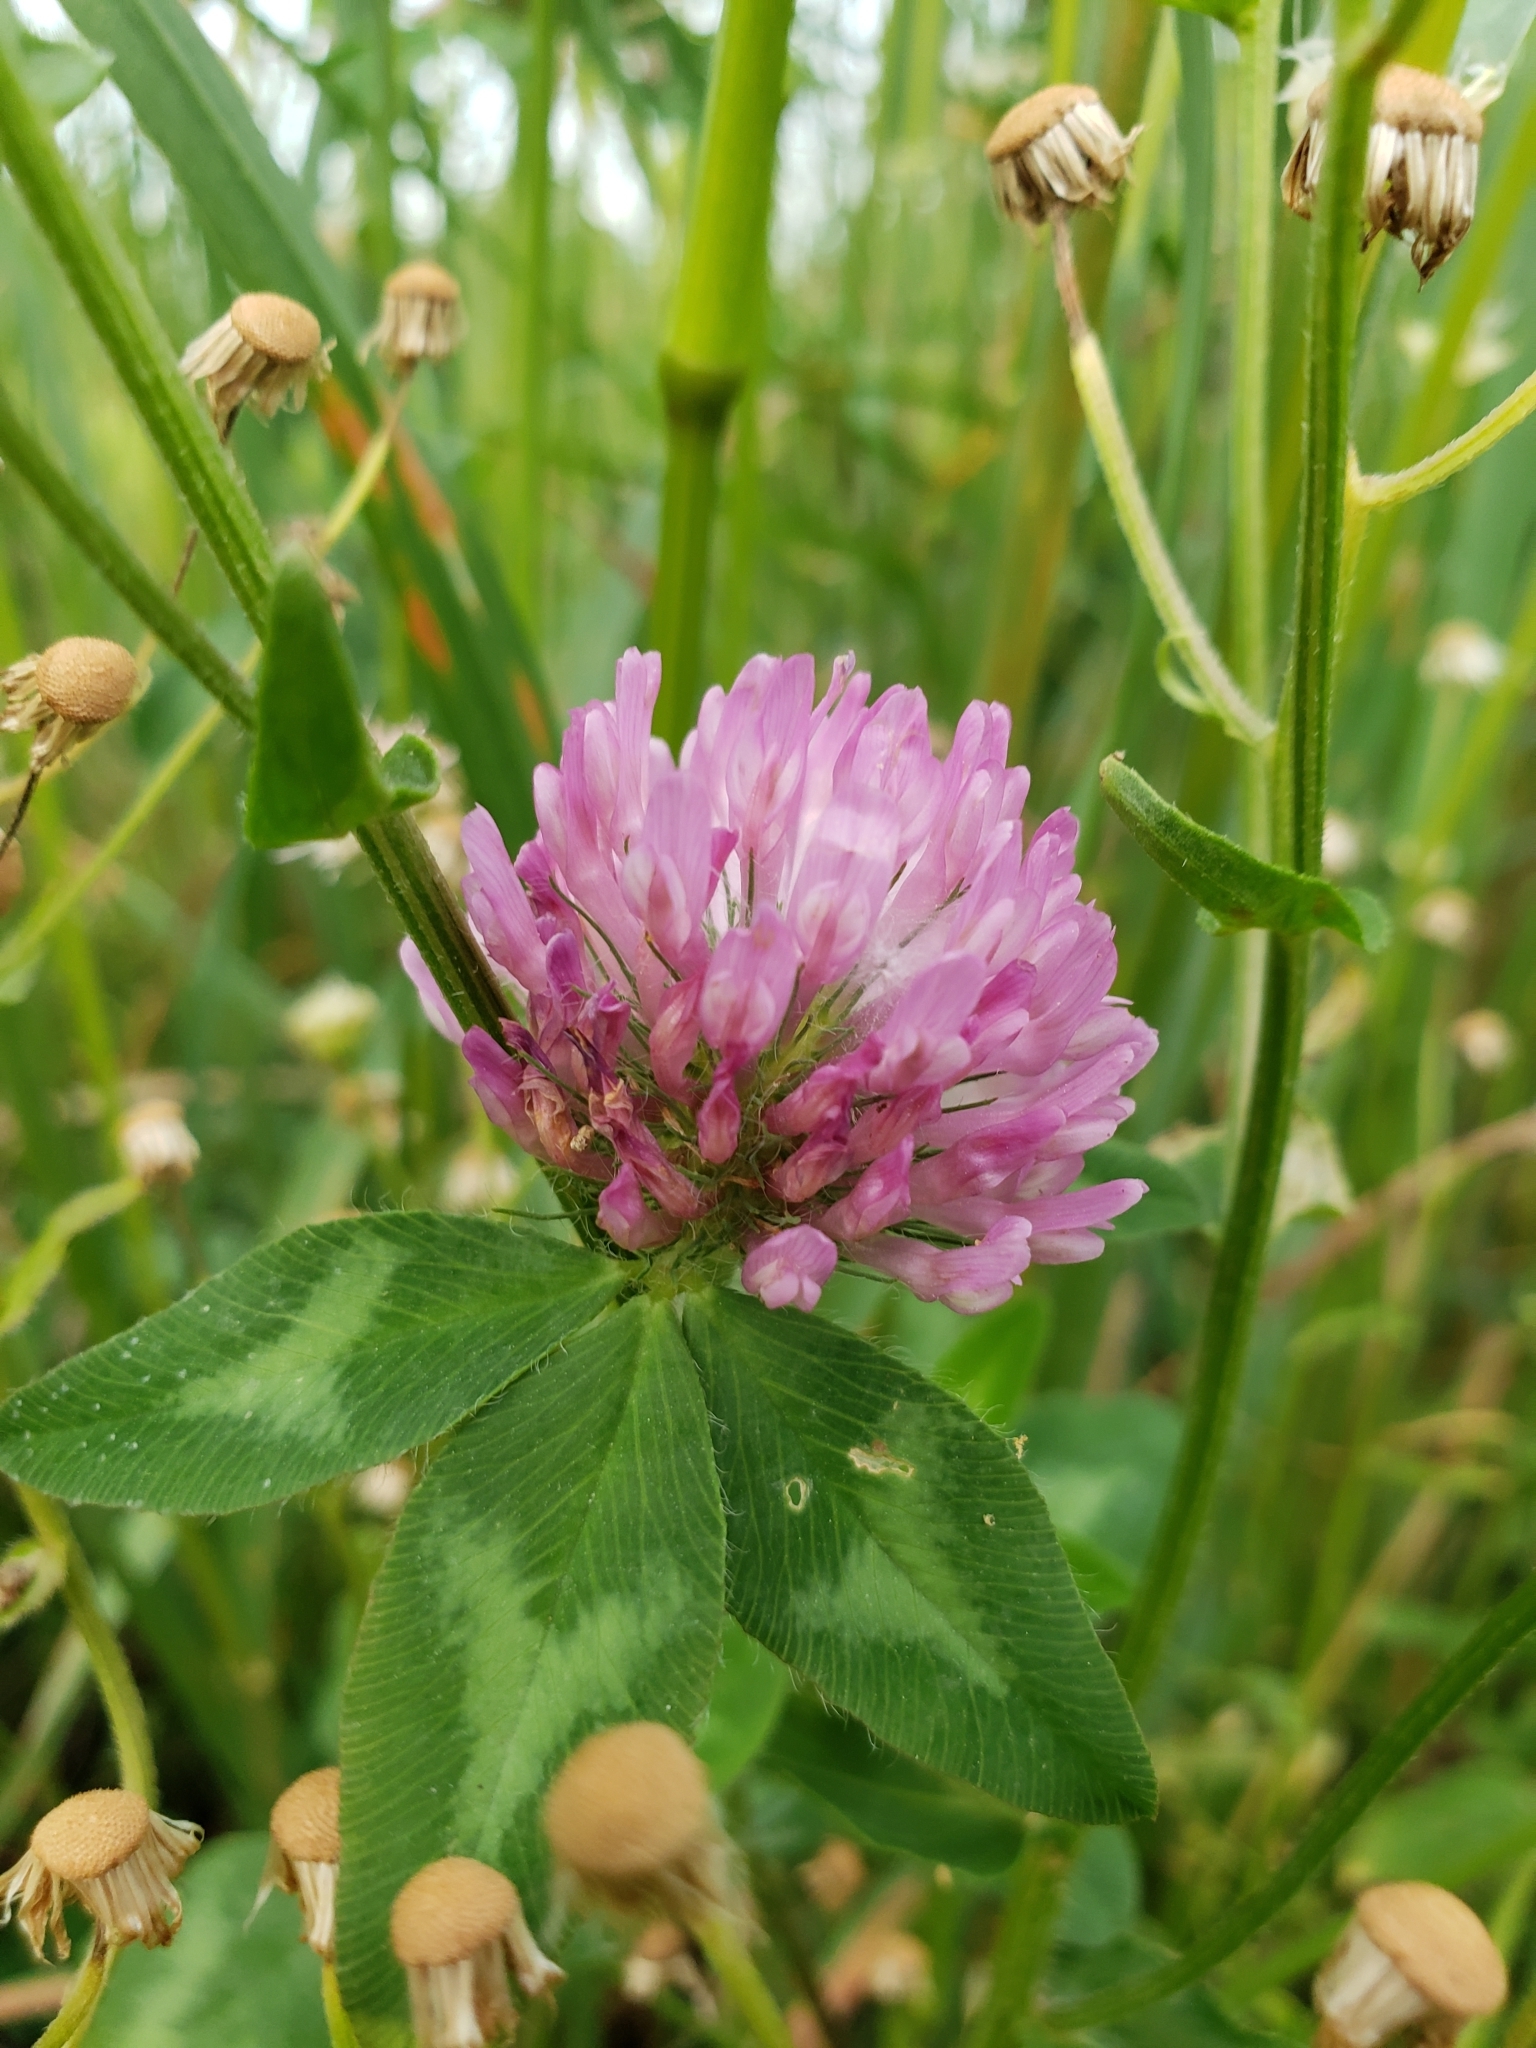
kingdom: Plantae
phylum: Tracheophyta
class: Magnoliopsida
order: Fabales
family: Fabaceae
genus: Trifolium
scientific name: Trifolium pratense
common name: Red clover
